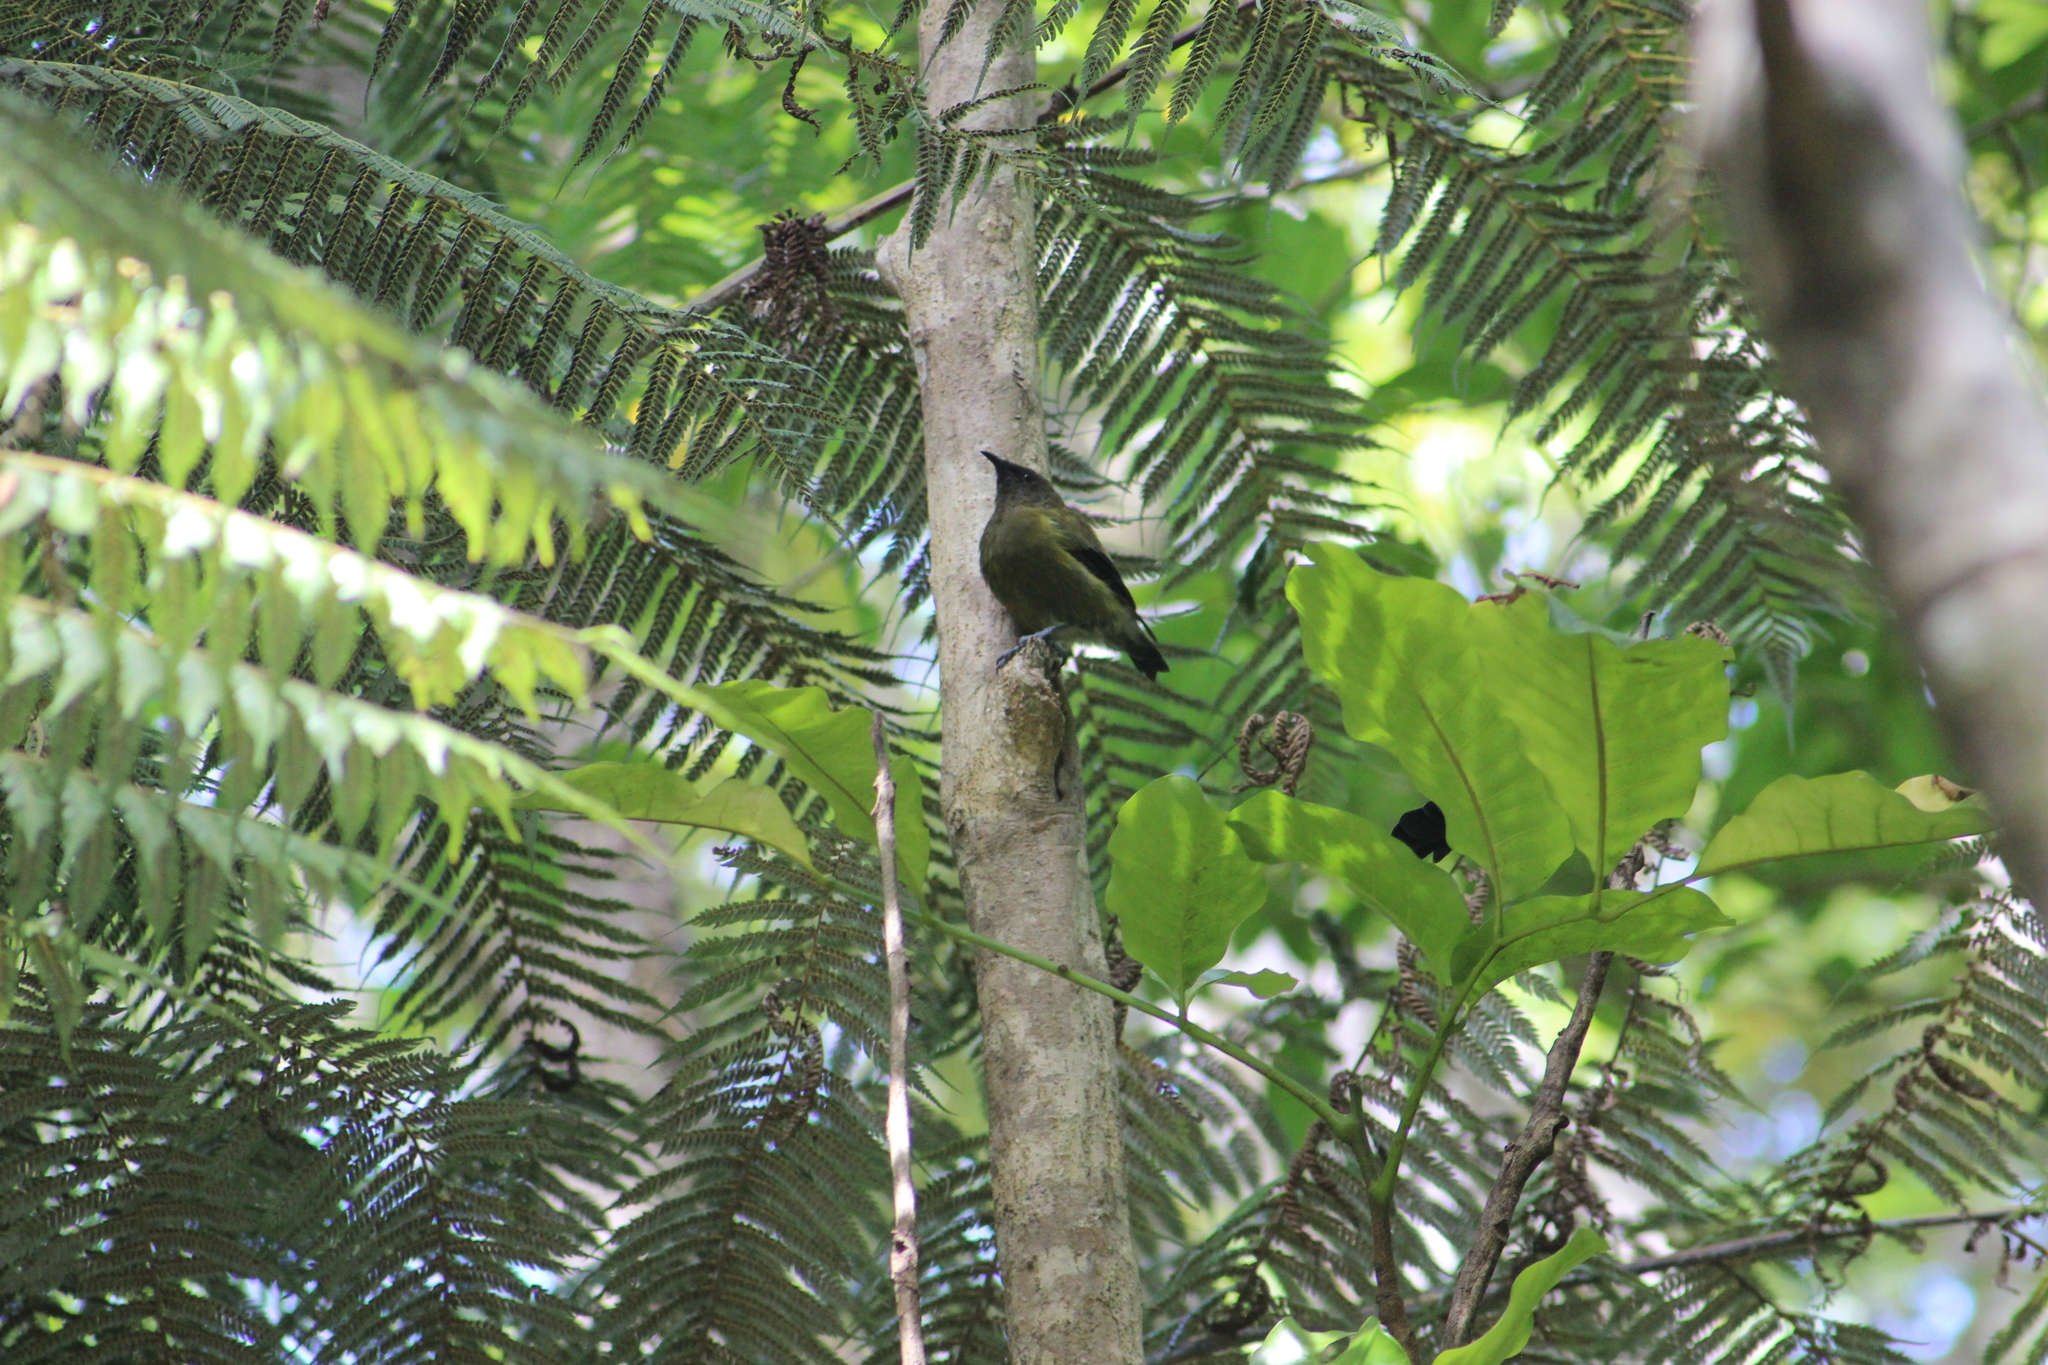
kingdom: Animalia
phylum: Chordata
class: Aves
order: Passeriformes
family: Meliphagidae
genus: Anthornis
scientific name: Anthornis melanura
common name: New zealand bellbird
